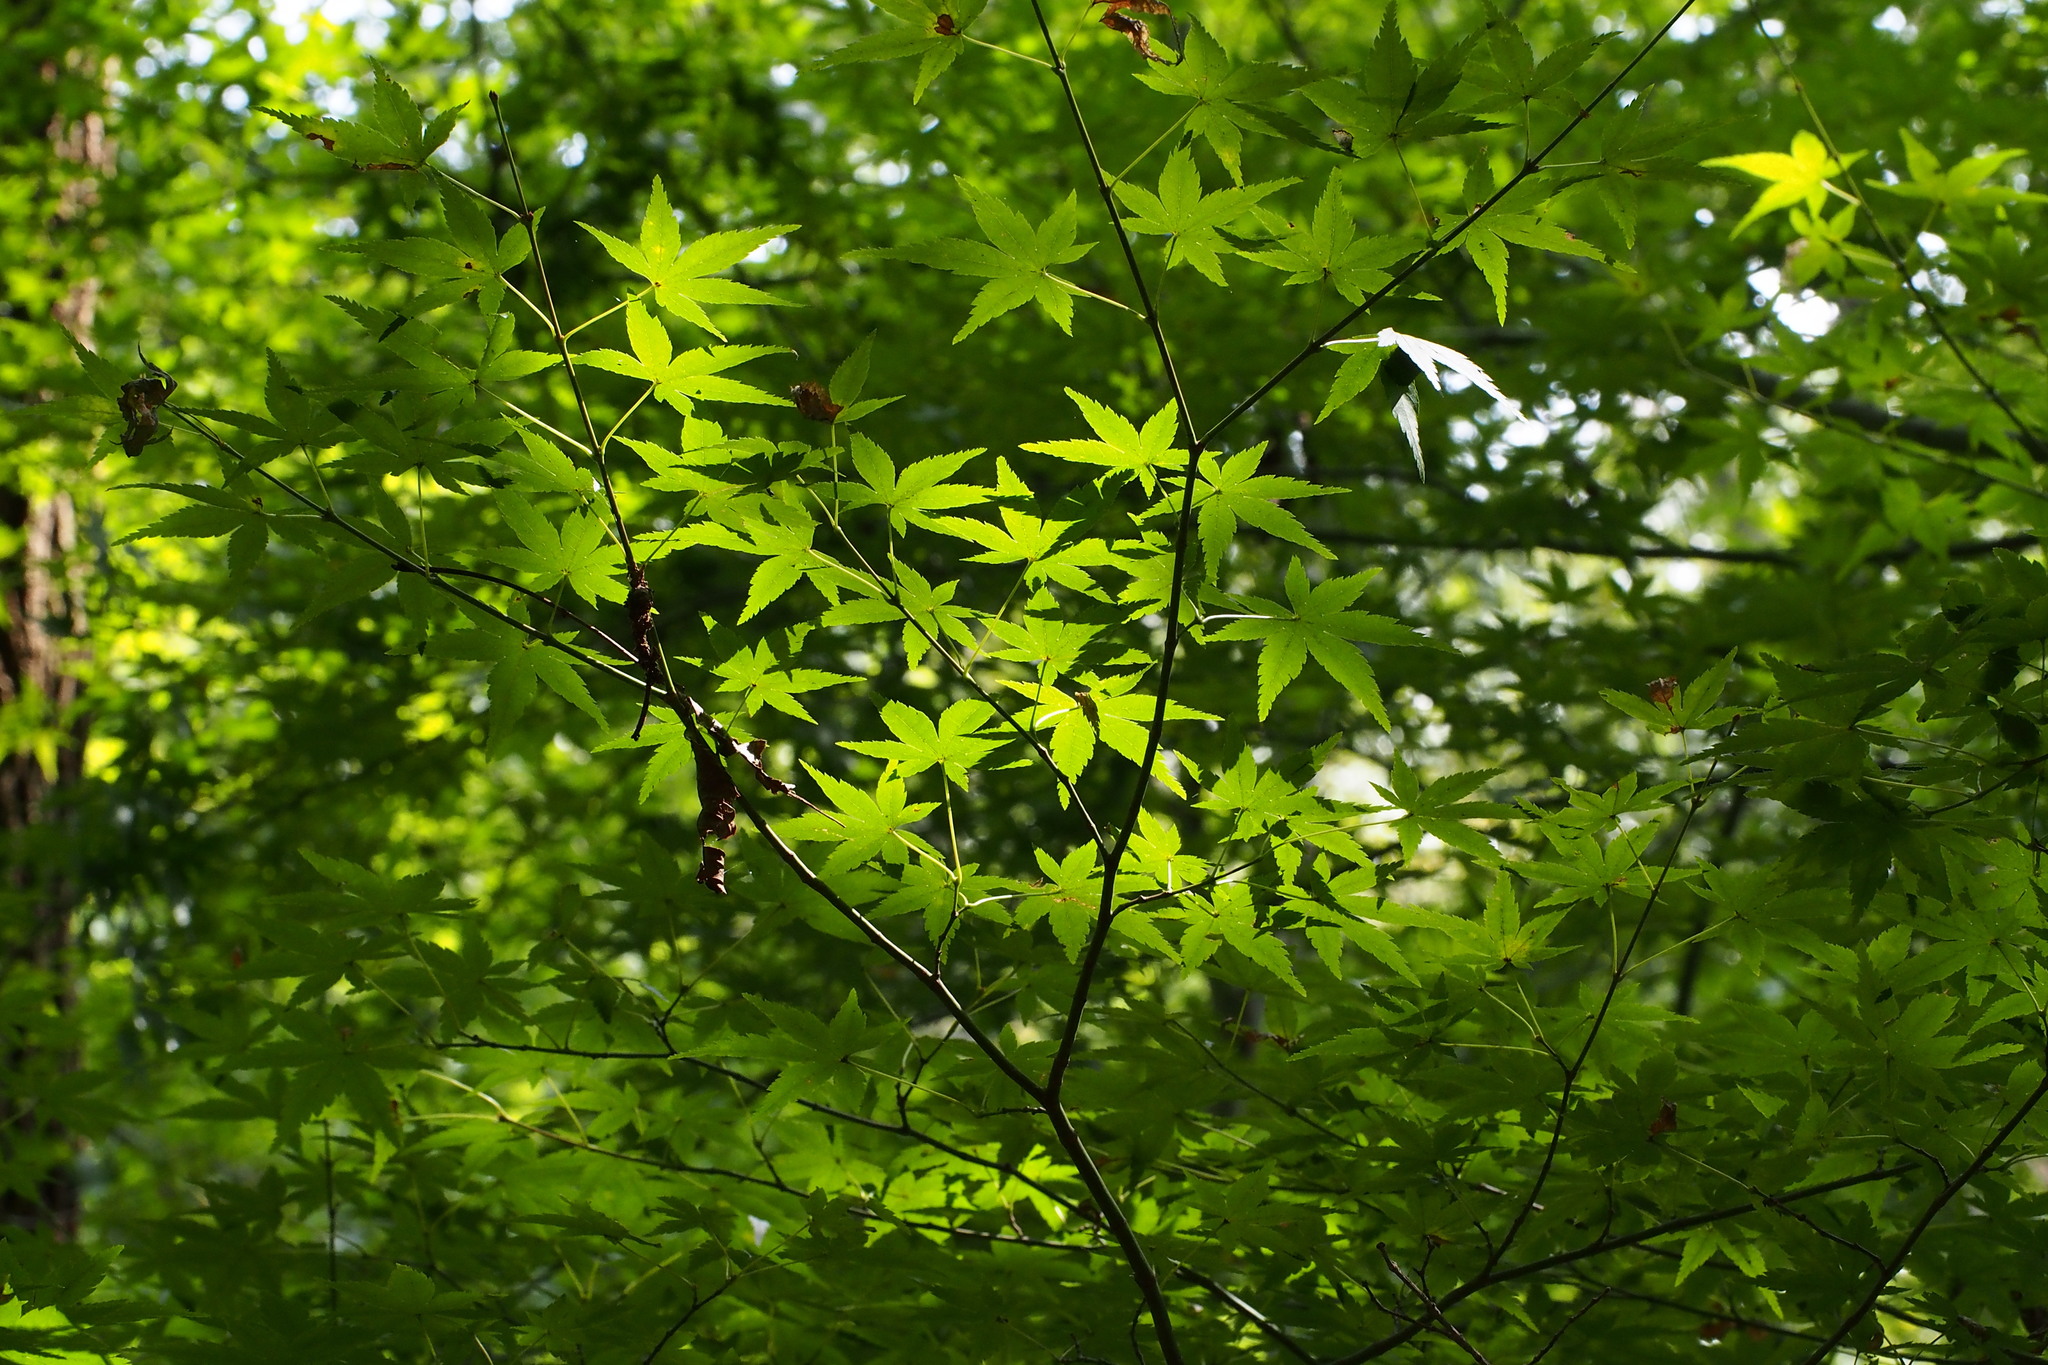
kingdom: Plantae
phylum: Tracheophyta
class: Magnoliopsida
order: Sapindales
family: Sapindaceae
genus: Acer
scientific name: Acer palmatum
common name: Japanese maple
